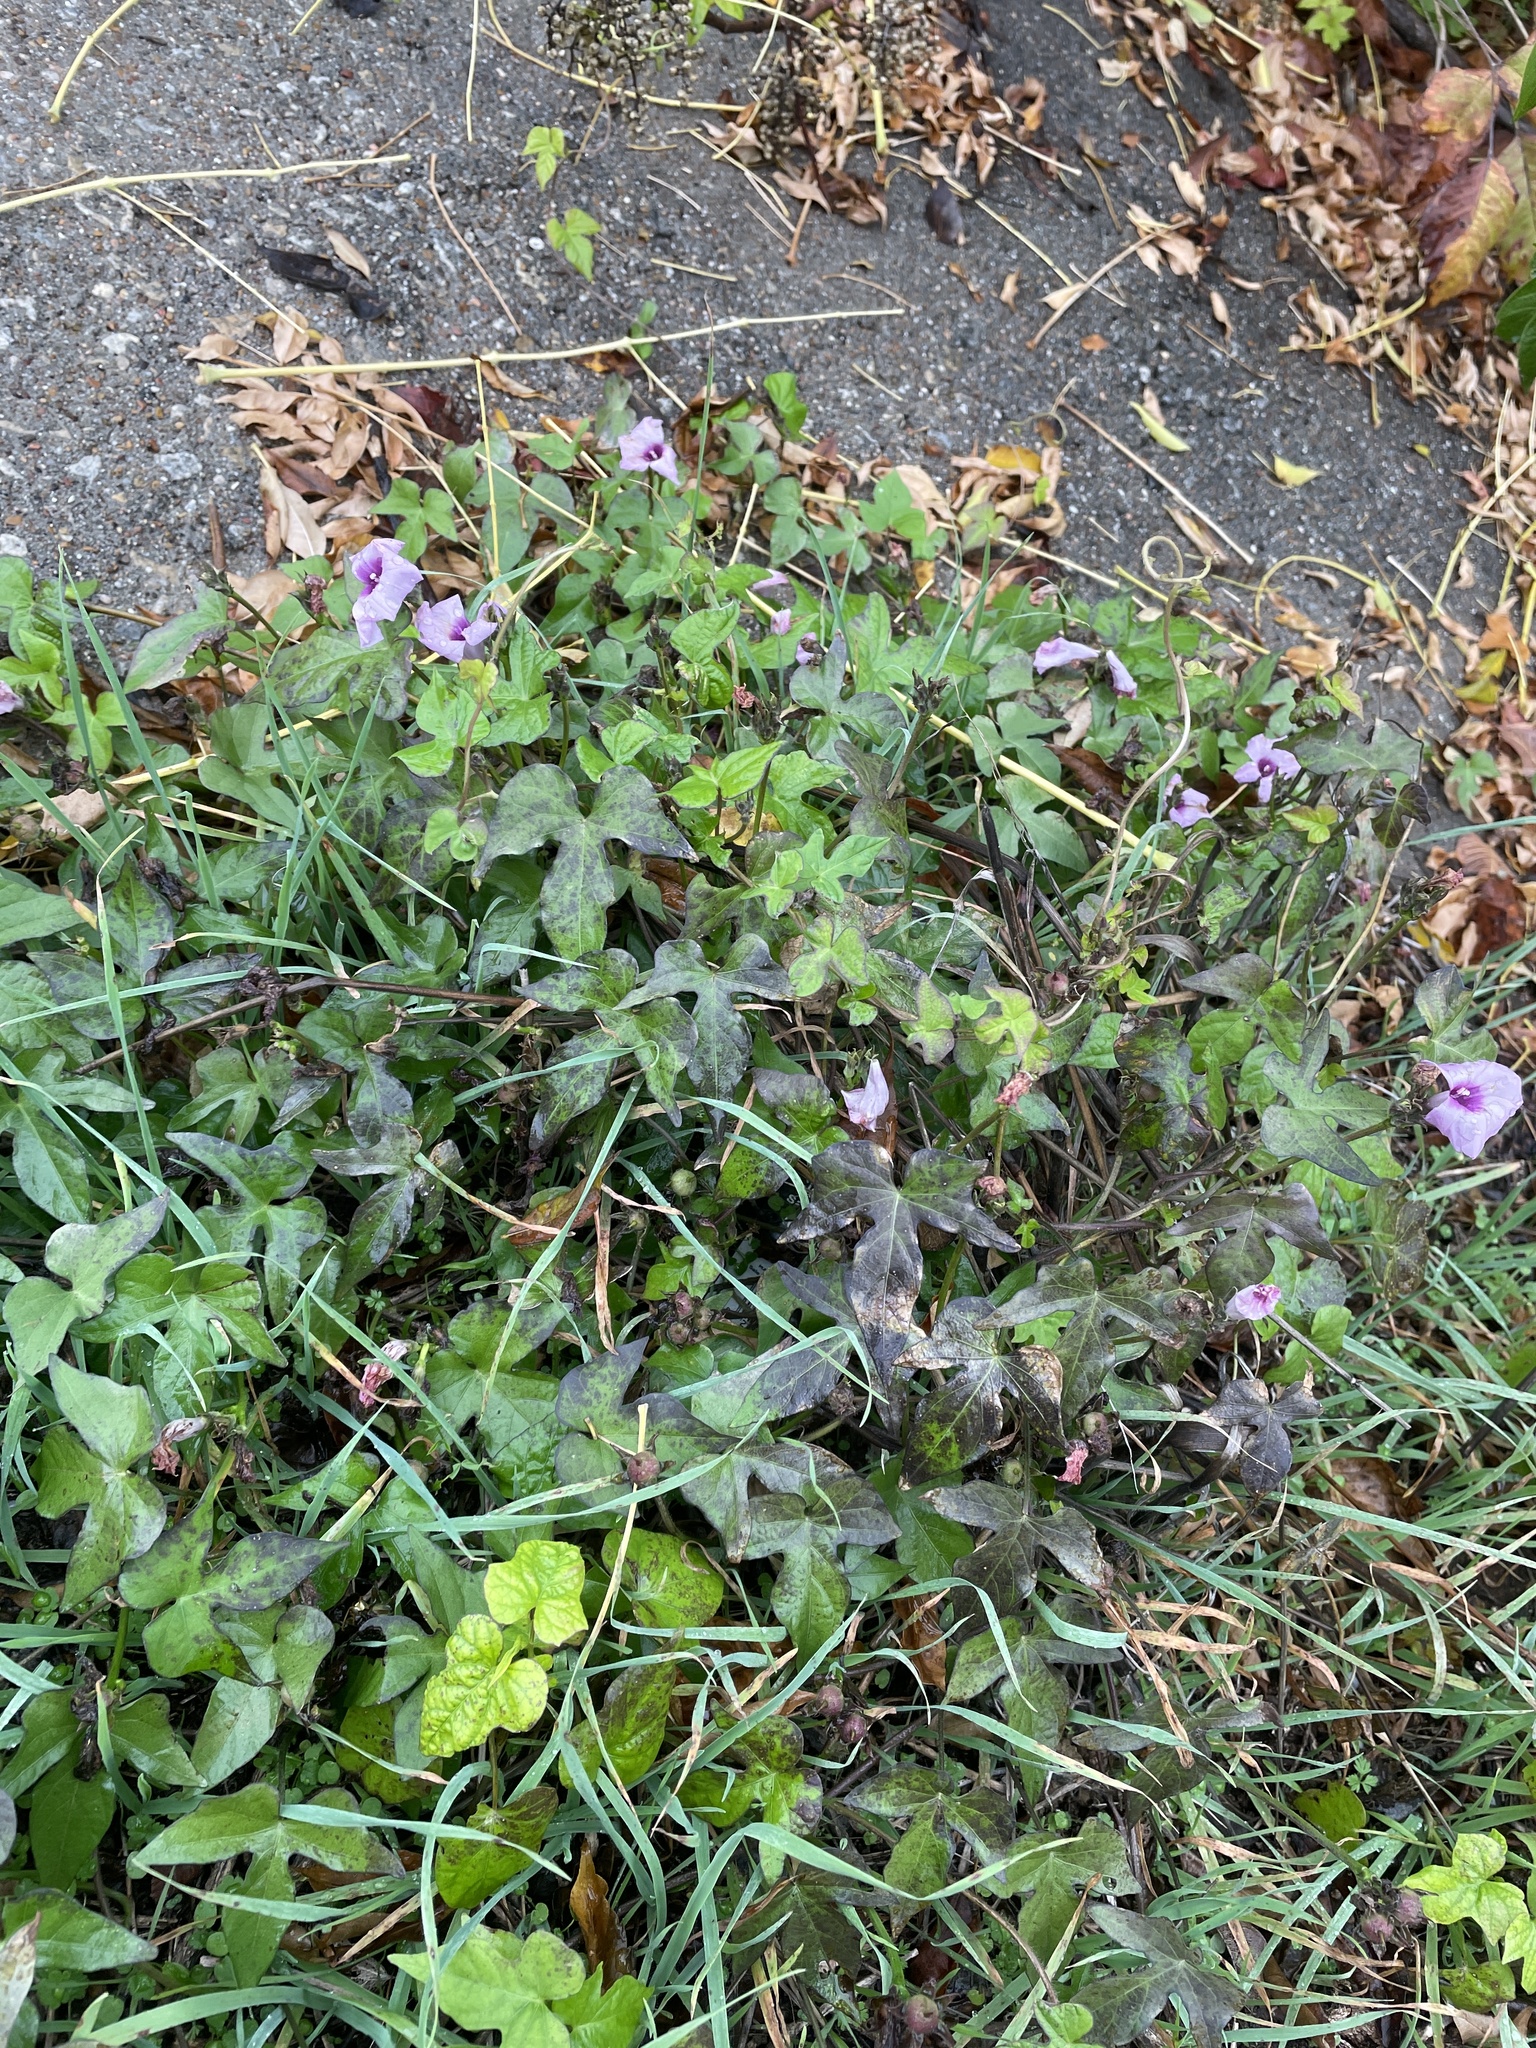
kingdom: Plantae
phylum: Tracheophyta
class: Magnoliopsida
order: Solanales
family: Convolvulaceae
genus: Ipomoea
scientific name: Ipomoea cordatotriloba
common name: Cotton morning glory
